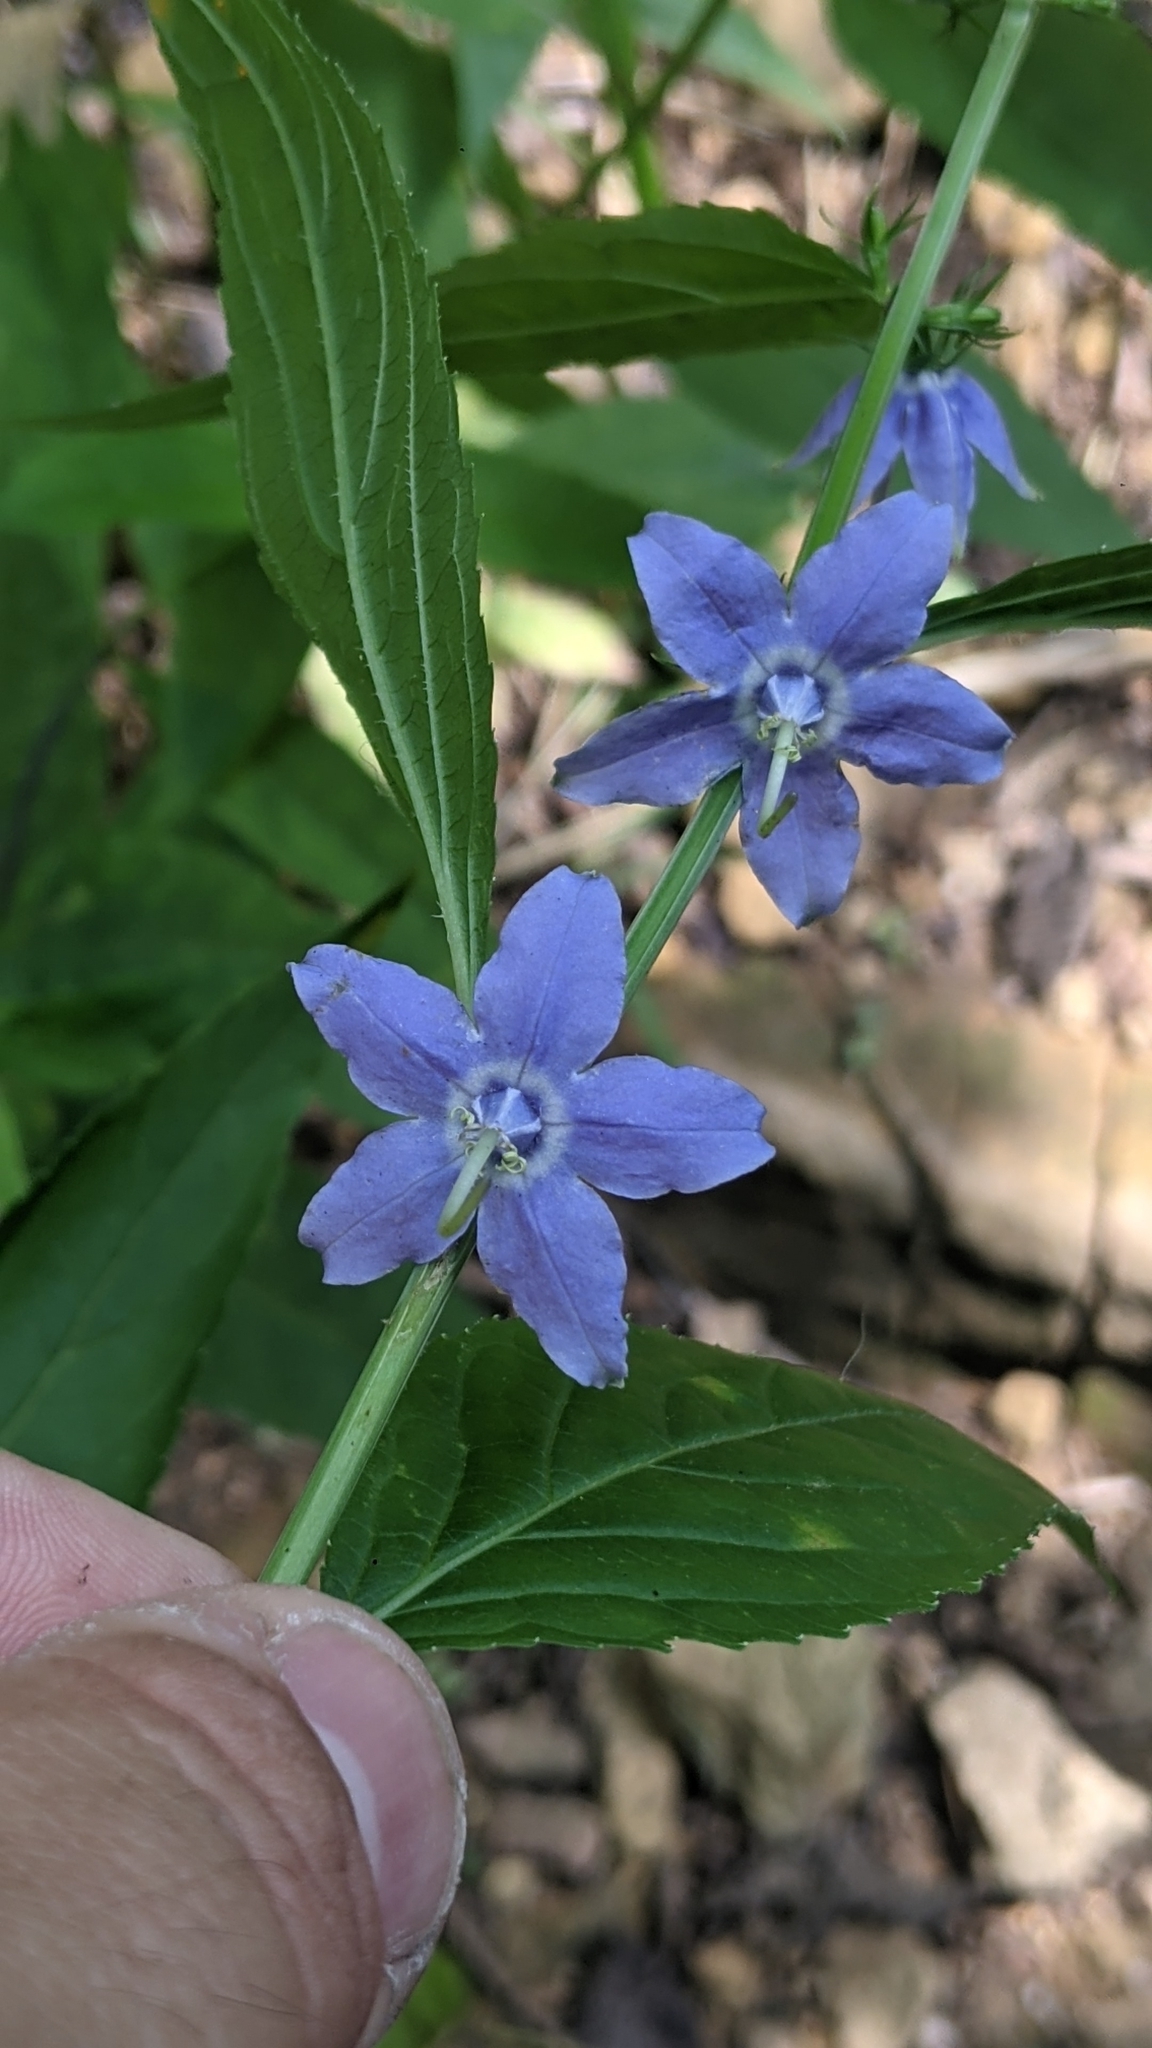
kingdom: Plantae
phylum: Tracheophyta
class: Magnoliopsida
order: Asterales
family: Campanulaceae
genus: Campanulastrum
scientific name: Campanulastrum americanum
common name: American bellflower
